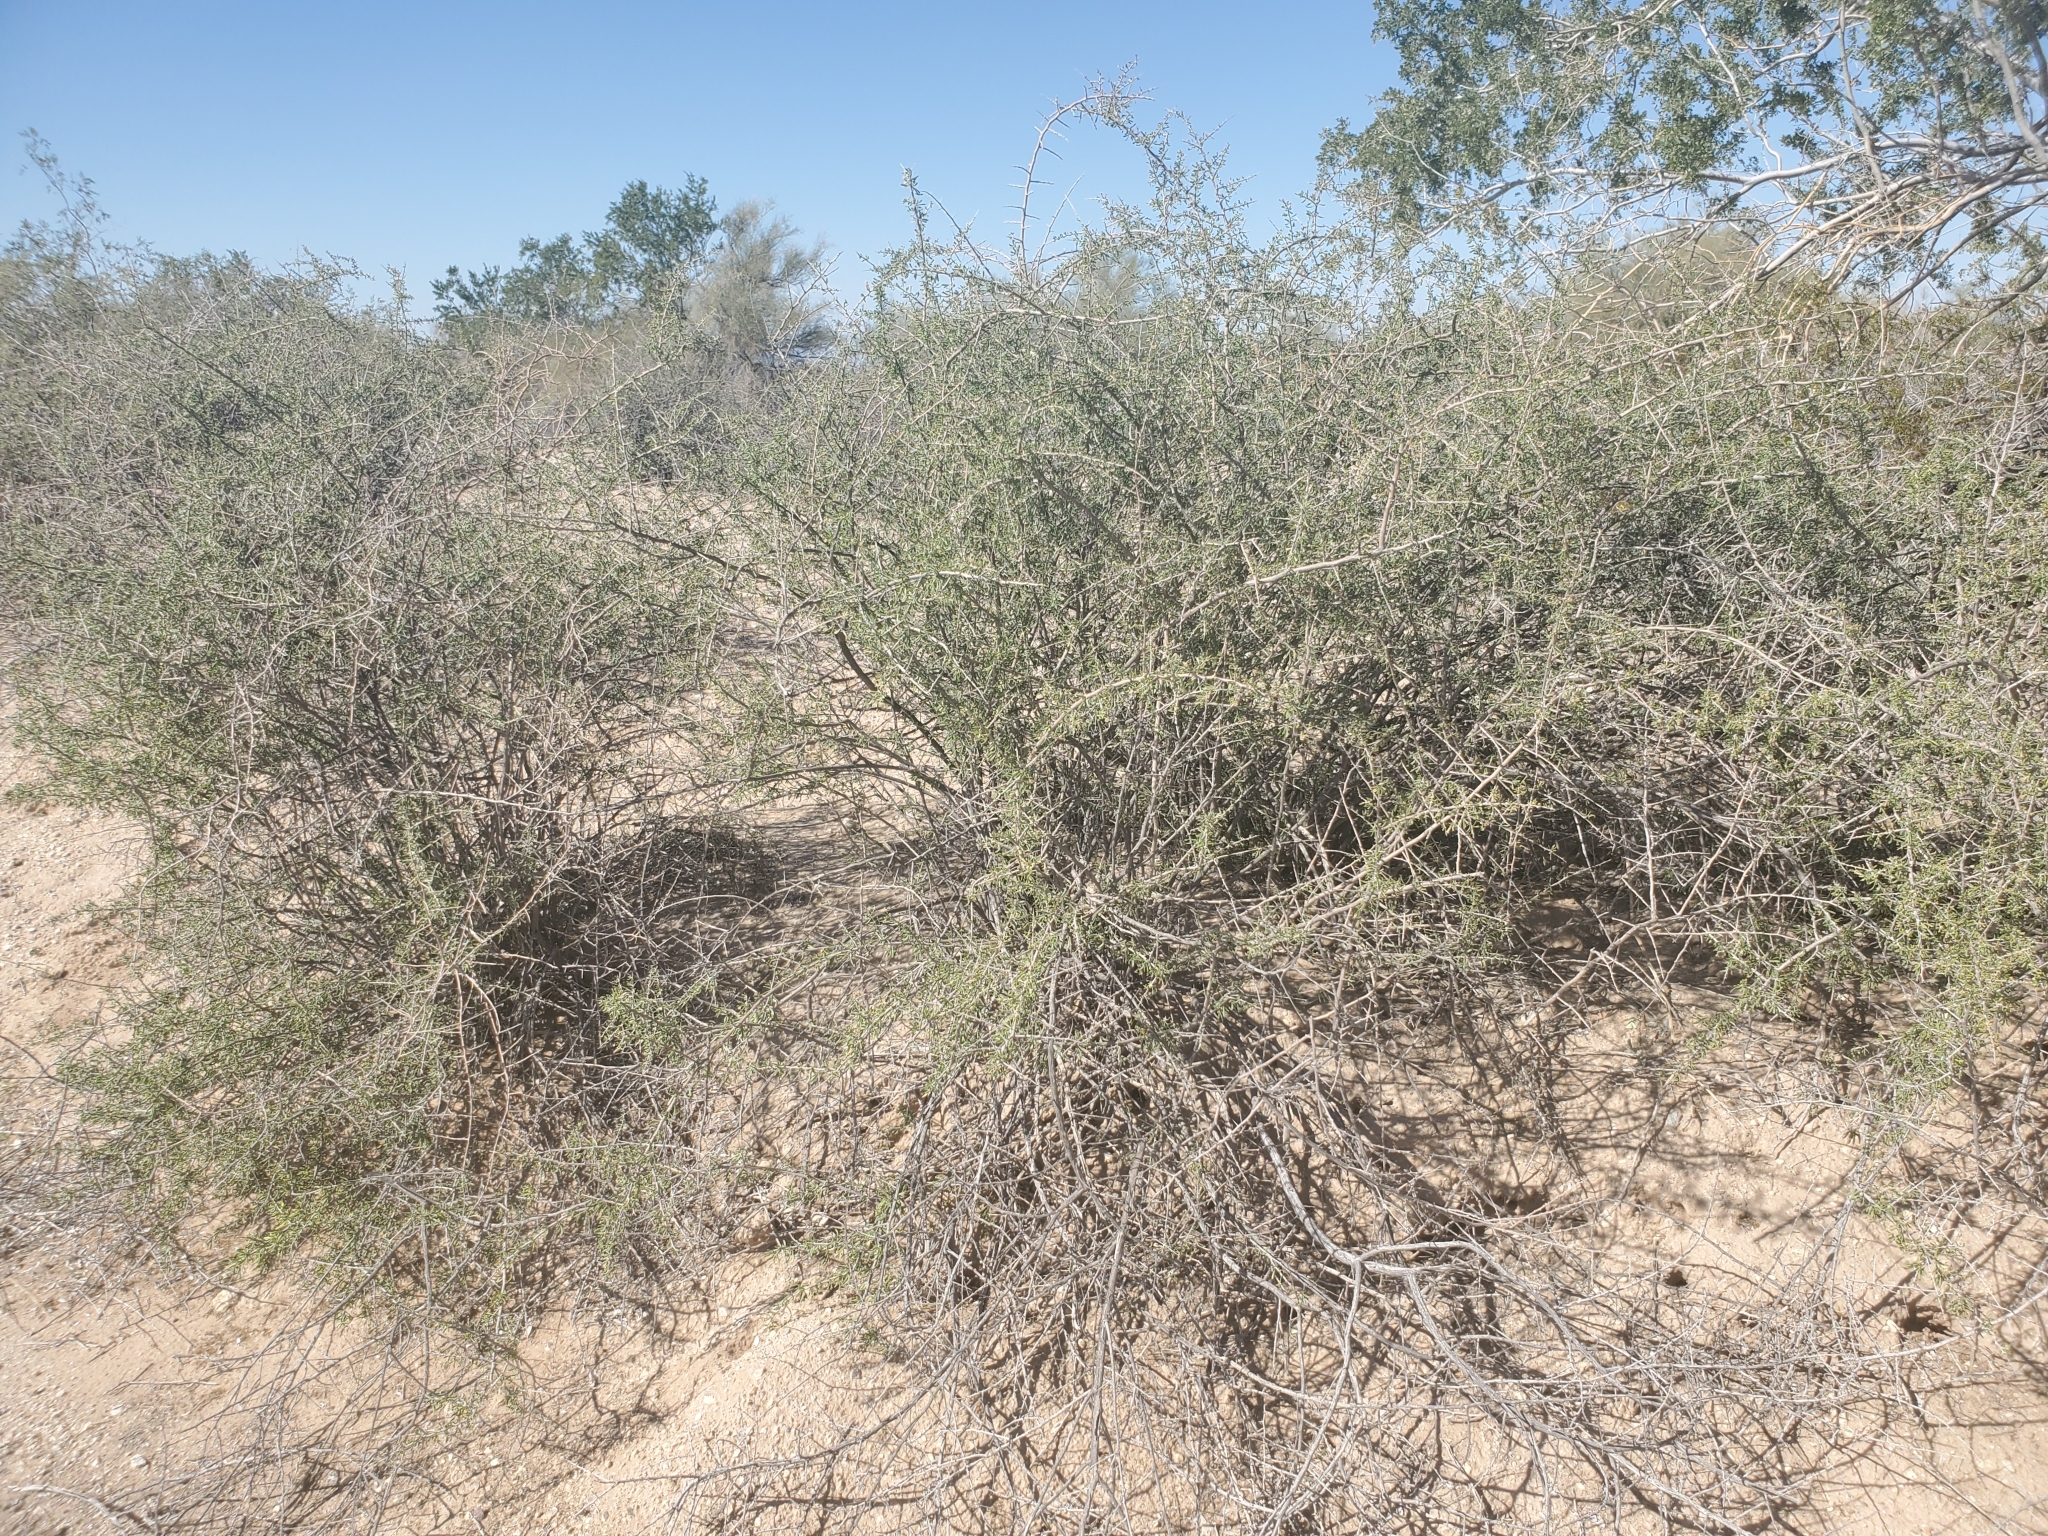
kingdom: Plantae
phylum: Tracheophyta
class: Magnoliopsida
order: Solanales
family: Solanaceae
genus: Lycium
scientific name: Lycium andersonii
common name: Water-jacket
